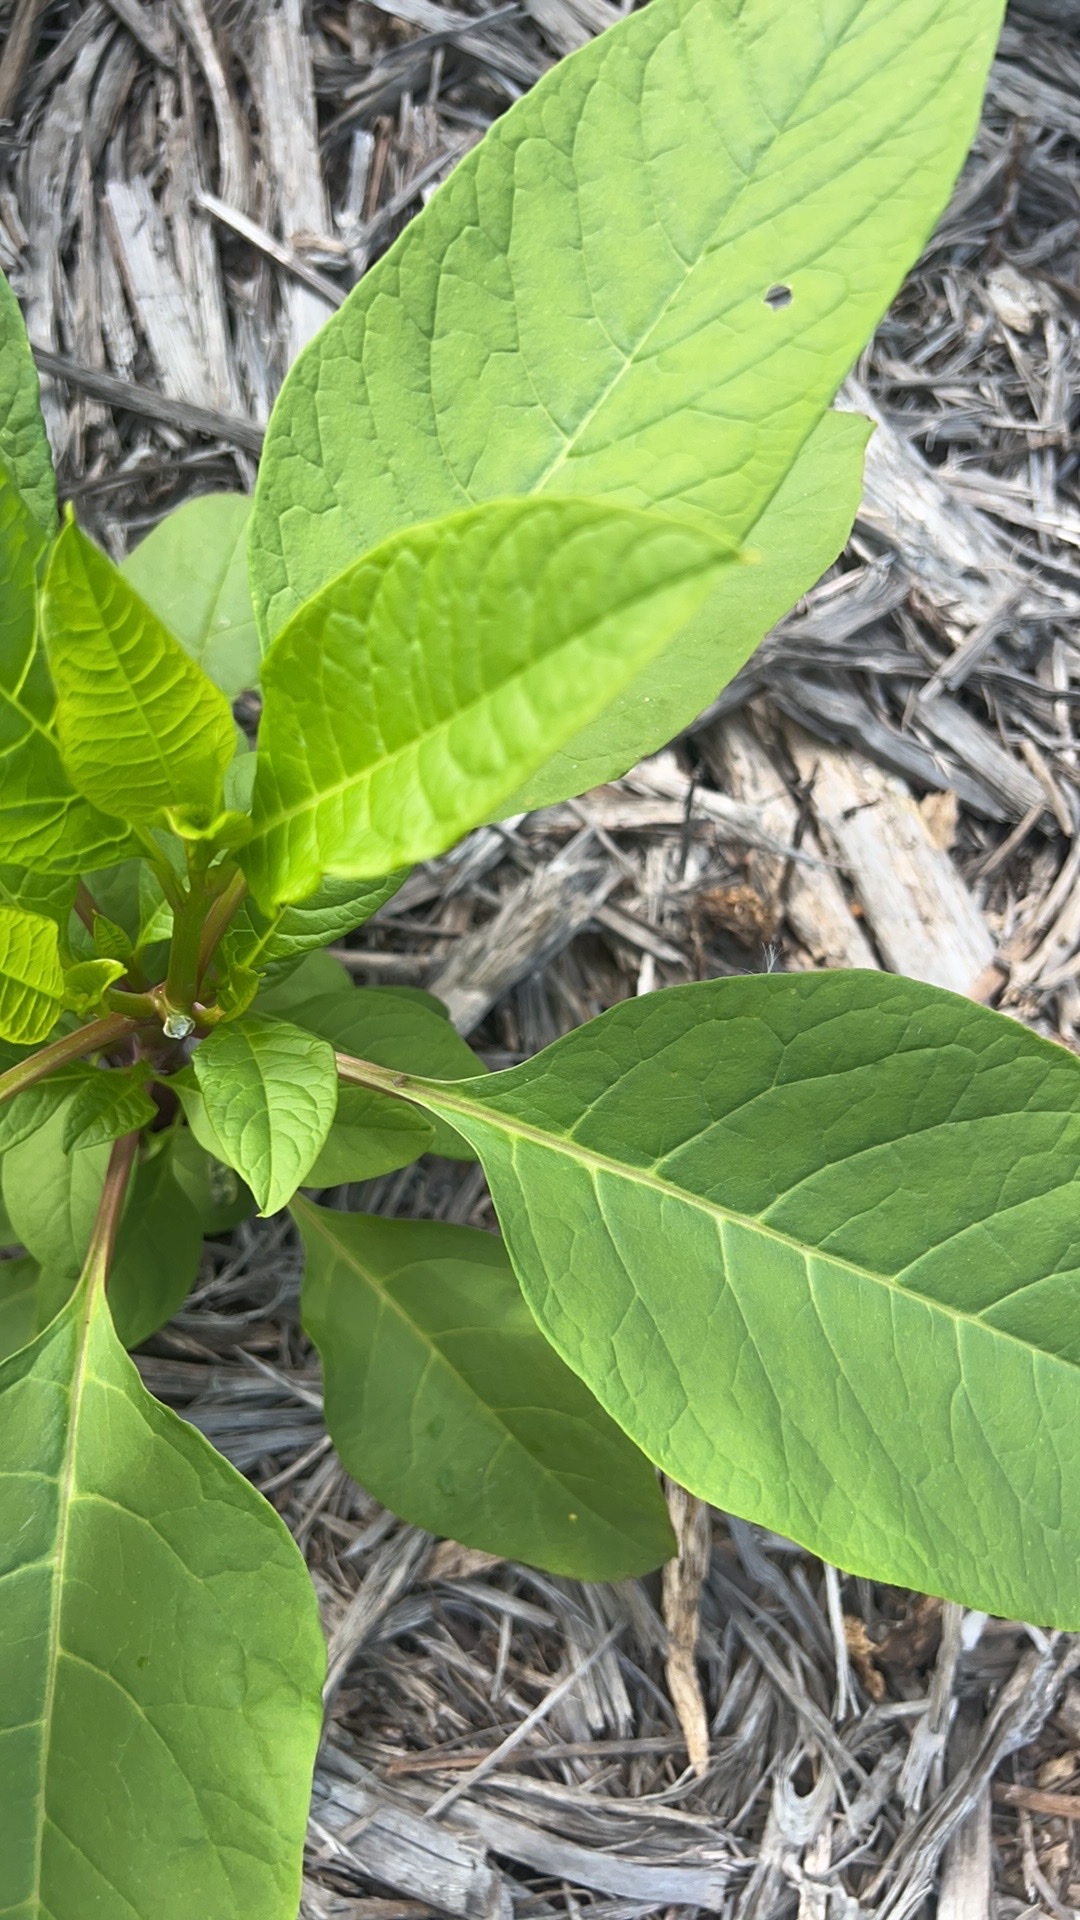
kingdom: Plantae
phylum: Tracheophyta
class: Magnoliopsida
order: Caryophyllales
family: Phytolaccaceae
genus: Phytolacca
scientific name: Phytolacca americana
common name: American pokeweed
